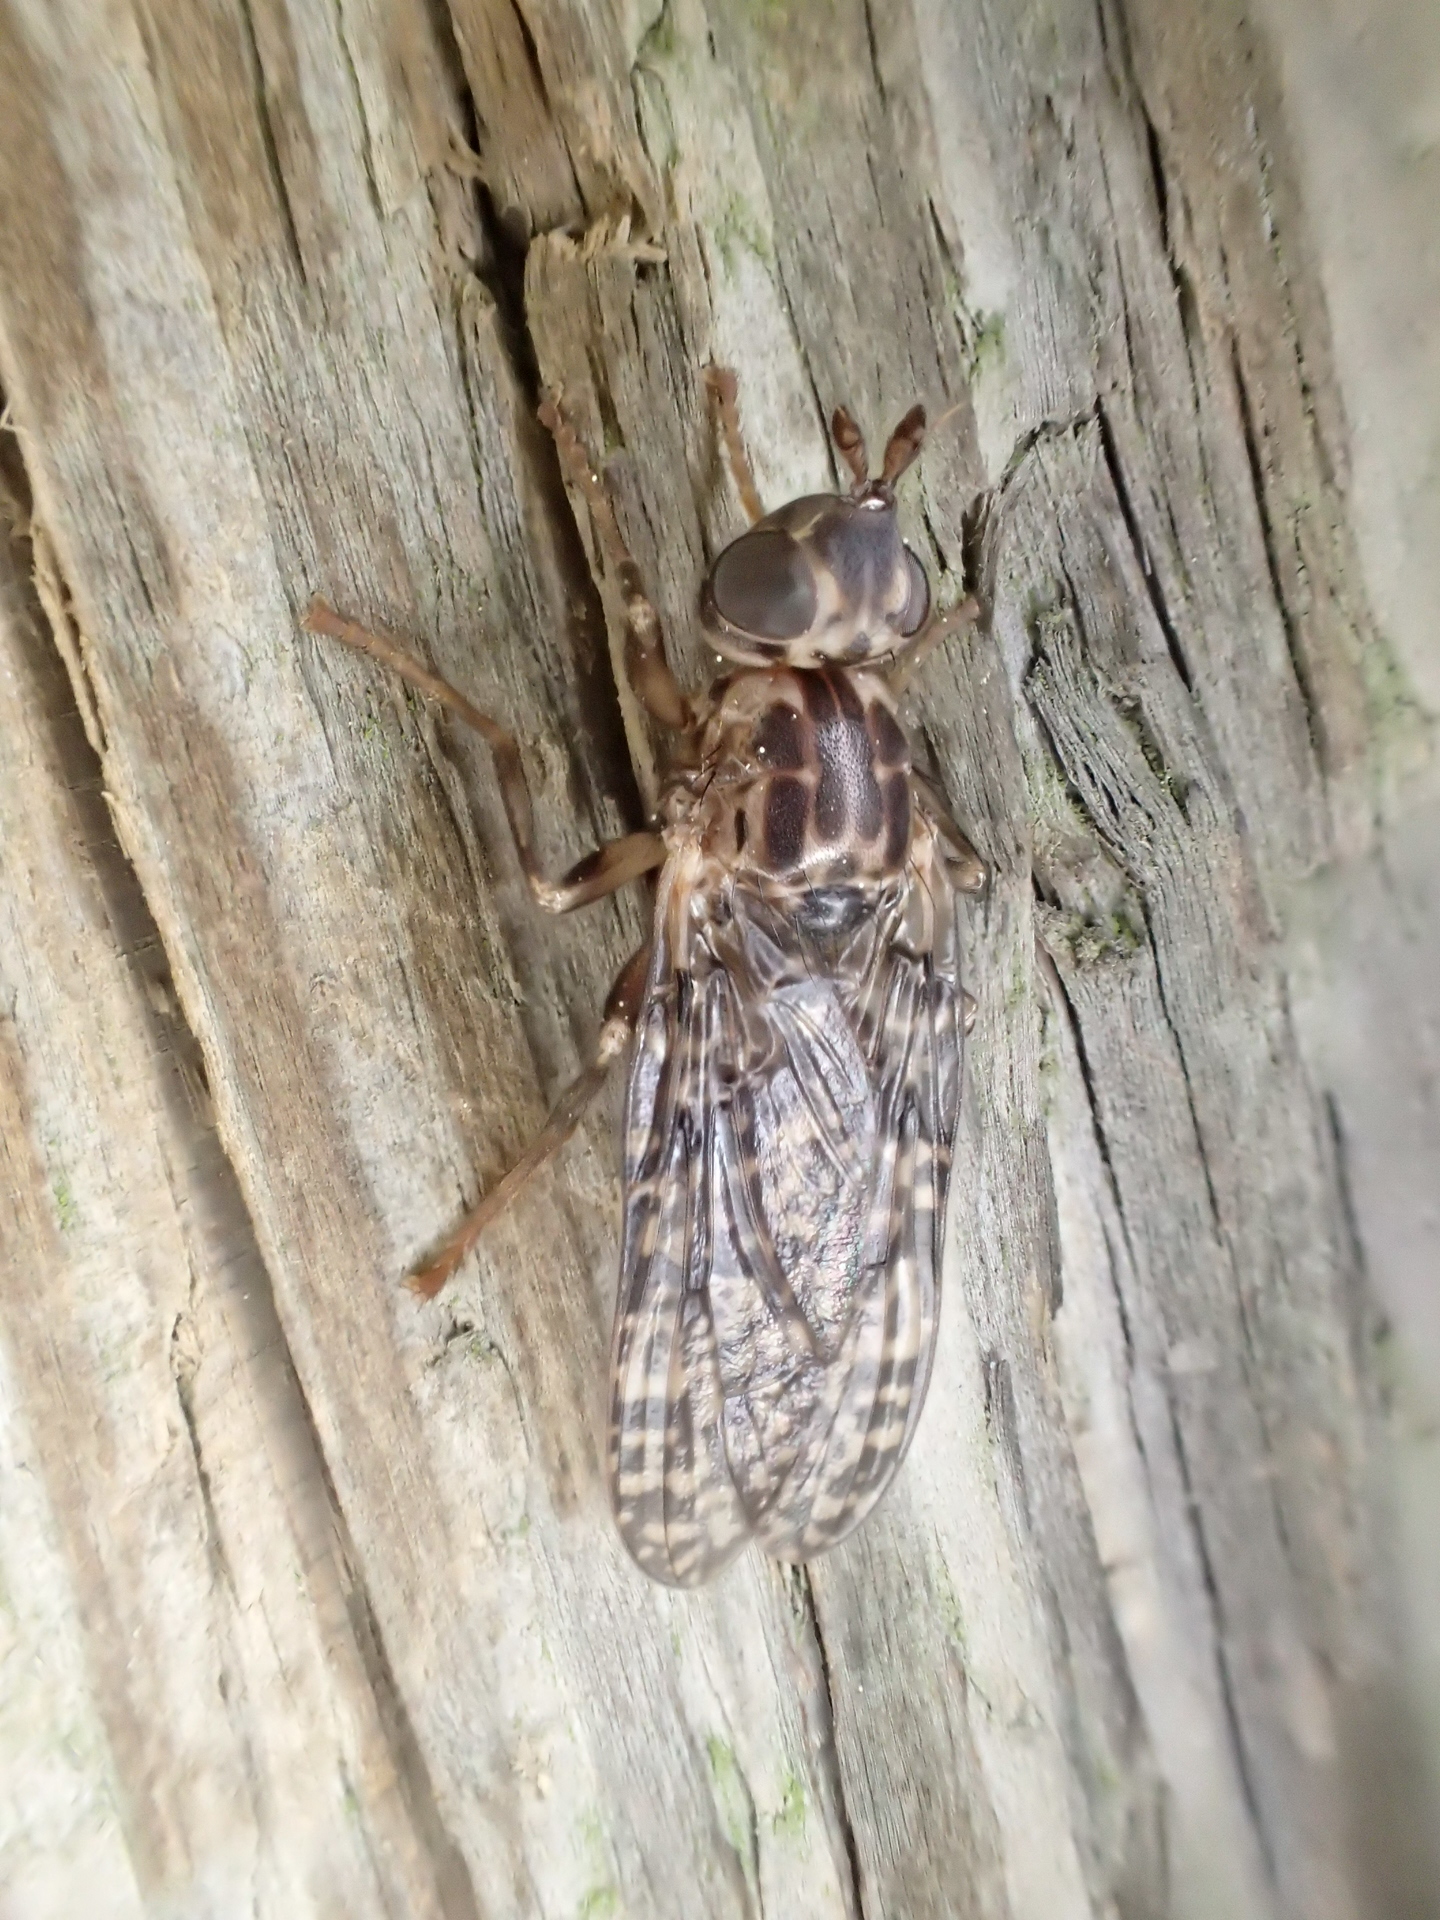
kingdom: Animalia
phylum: Arthropoda
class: Insecta
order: Diptera
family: Pyrgotidae
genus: Boreothrinax
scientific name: Boreothrinax
